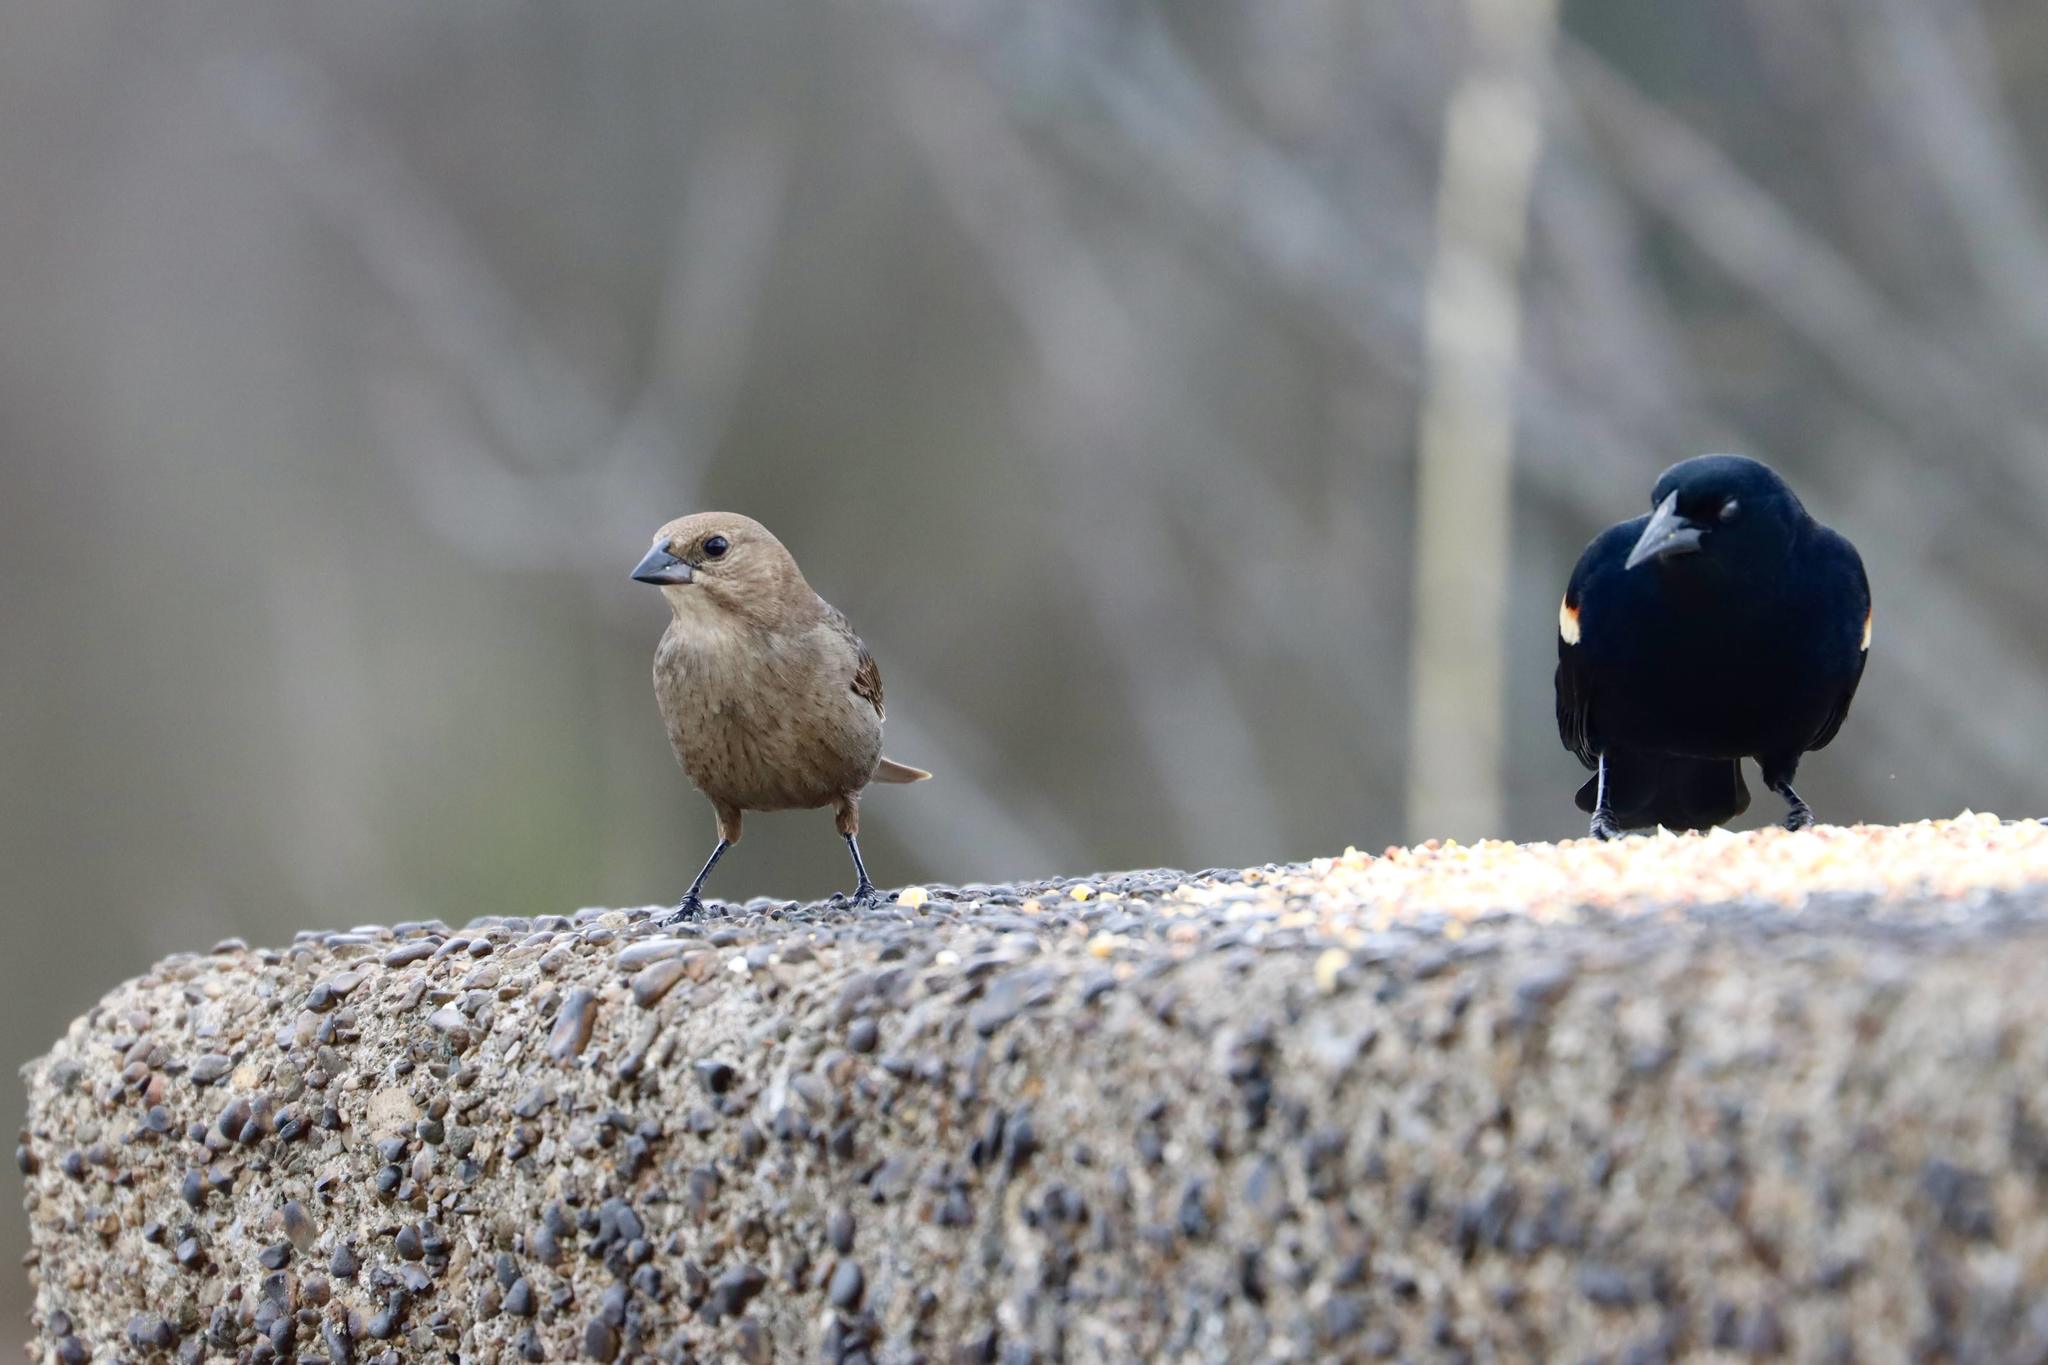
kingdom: Animalia
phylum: Chordata
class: Aves
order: Passeriformes
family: Icteridae
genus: Molothrus
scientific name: Molothrus ater
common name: Brown-headed cowbird
